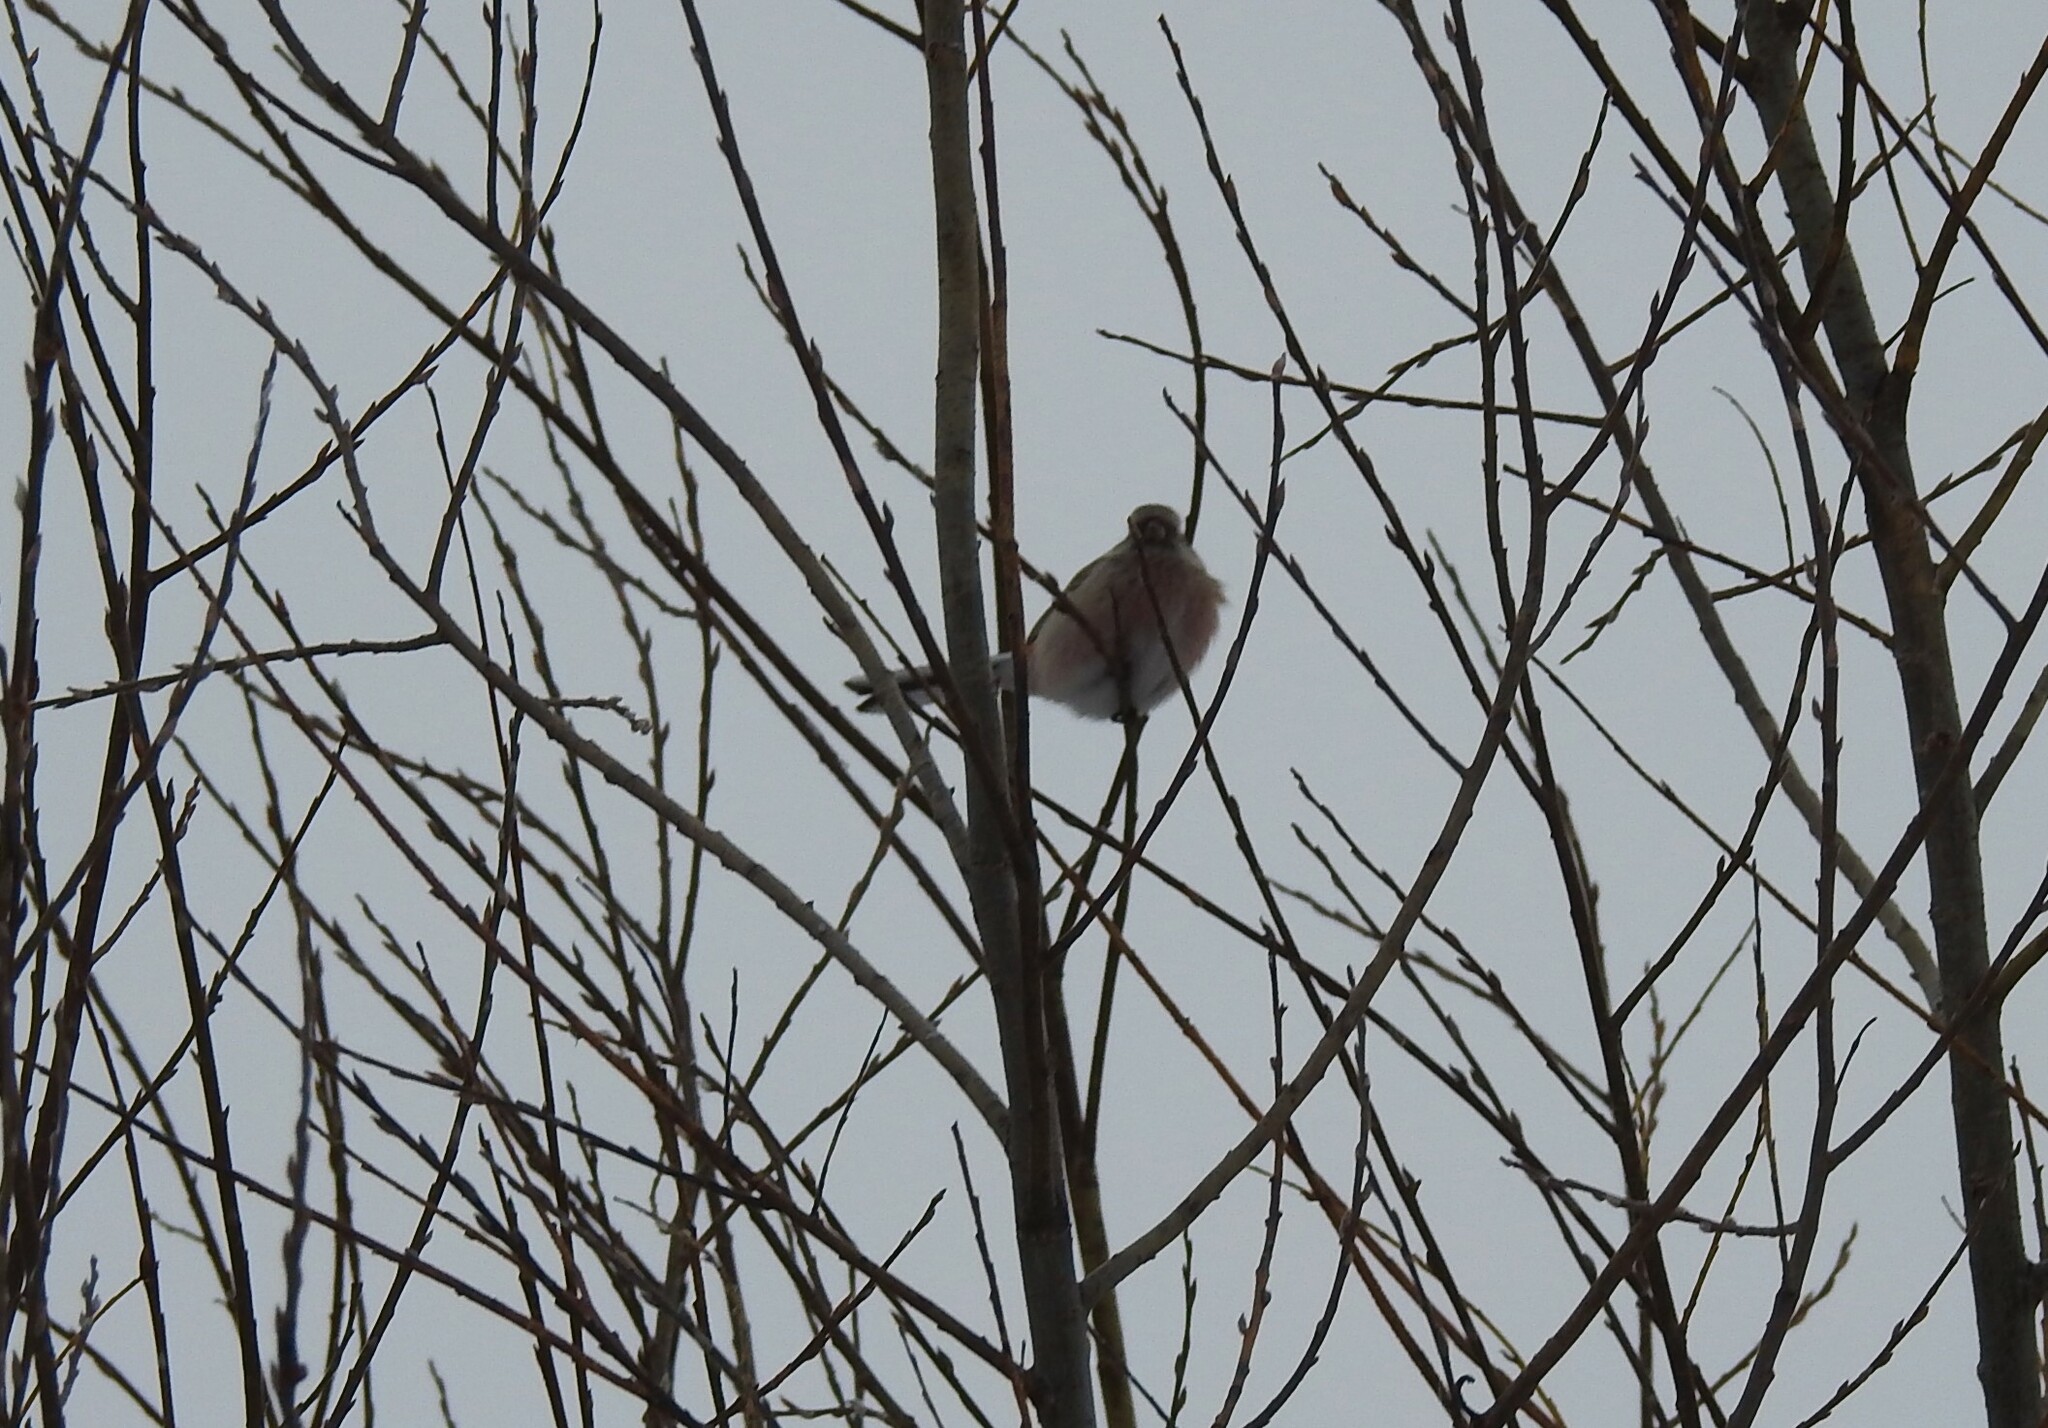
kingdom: Animalia
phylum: Chordata
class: Aves
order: Passeriformes
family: Fringillidae
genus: Carpodacus
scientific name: Carpodacus sibiricus
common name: Long-tailed rosefinch
